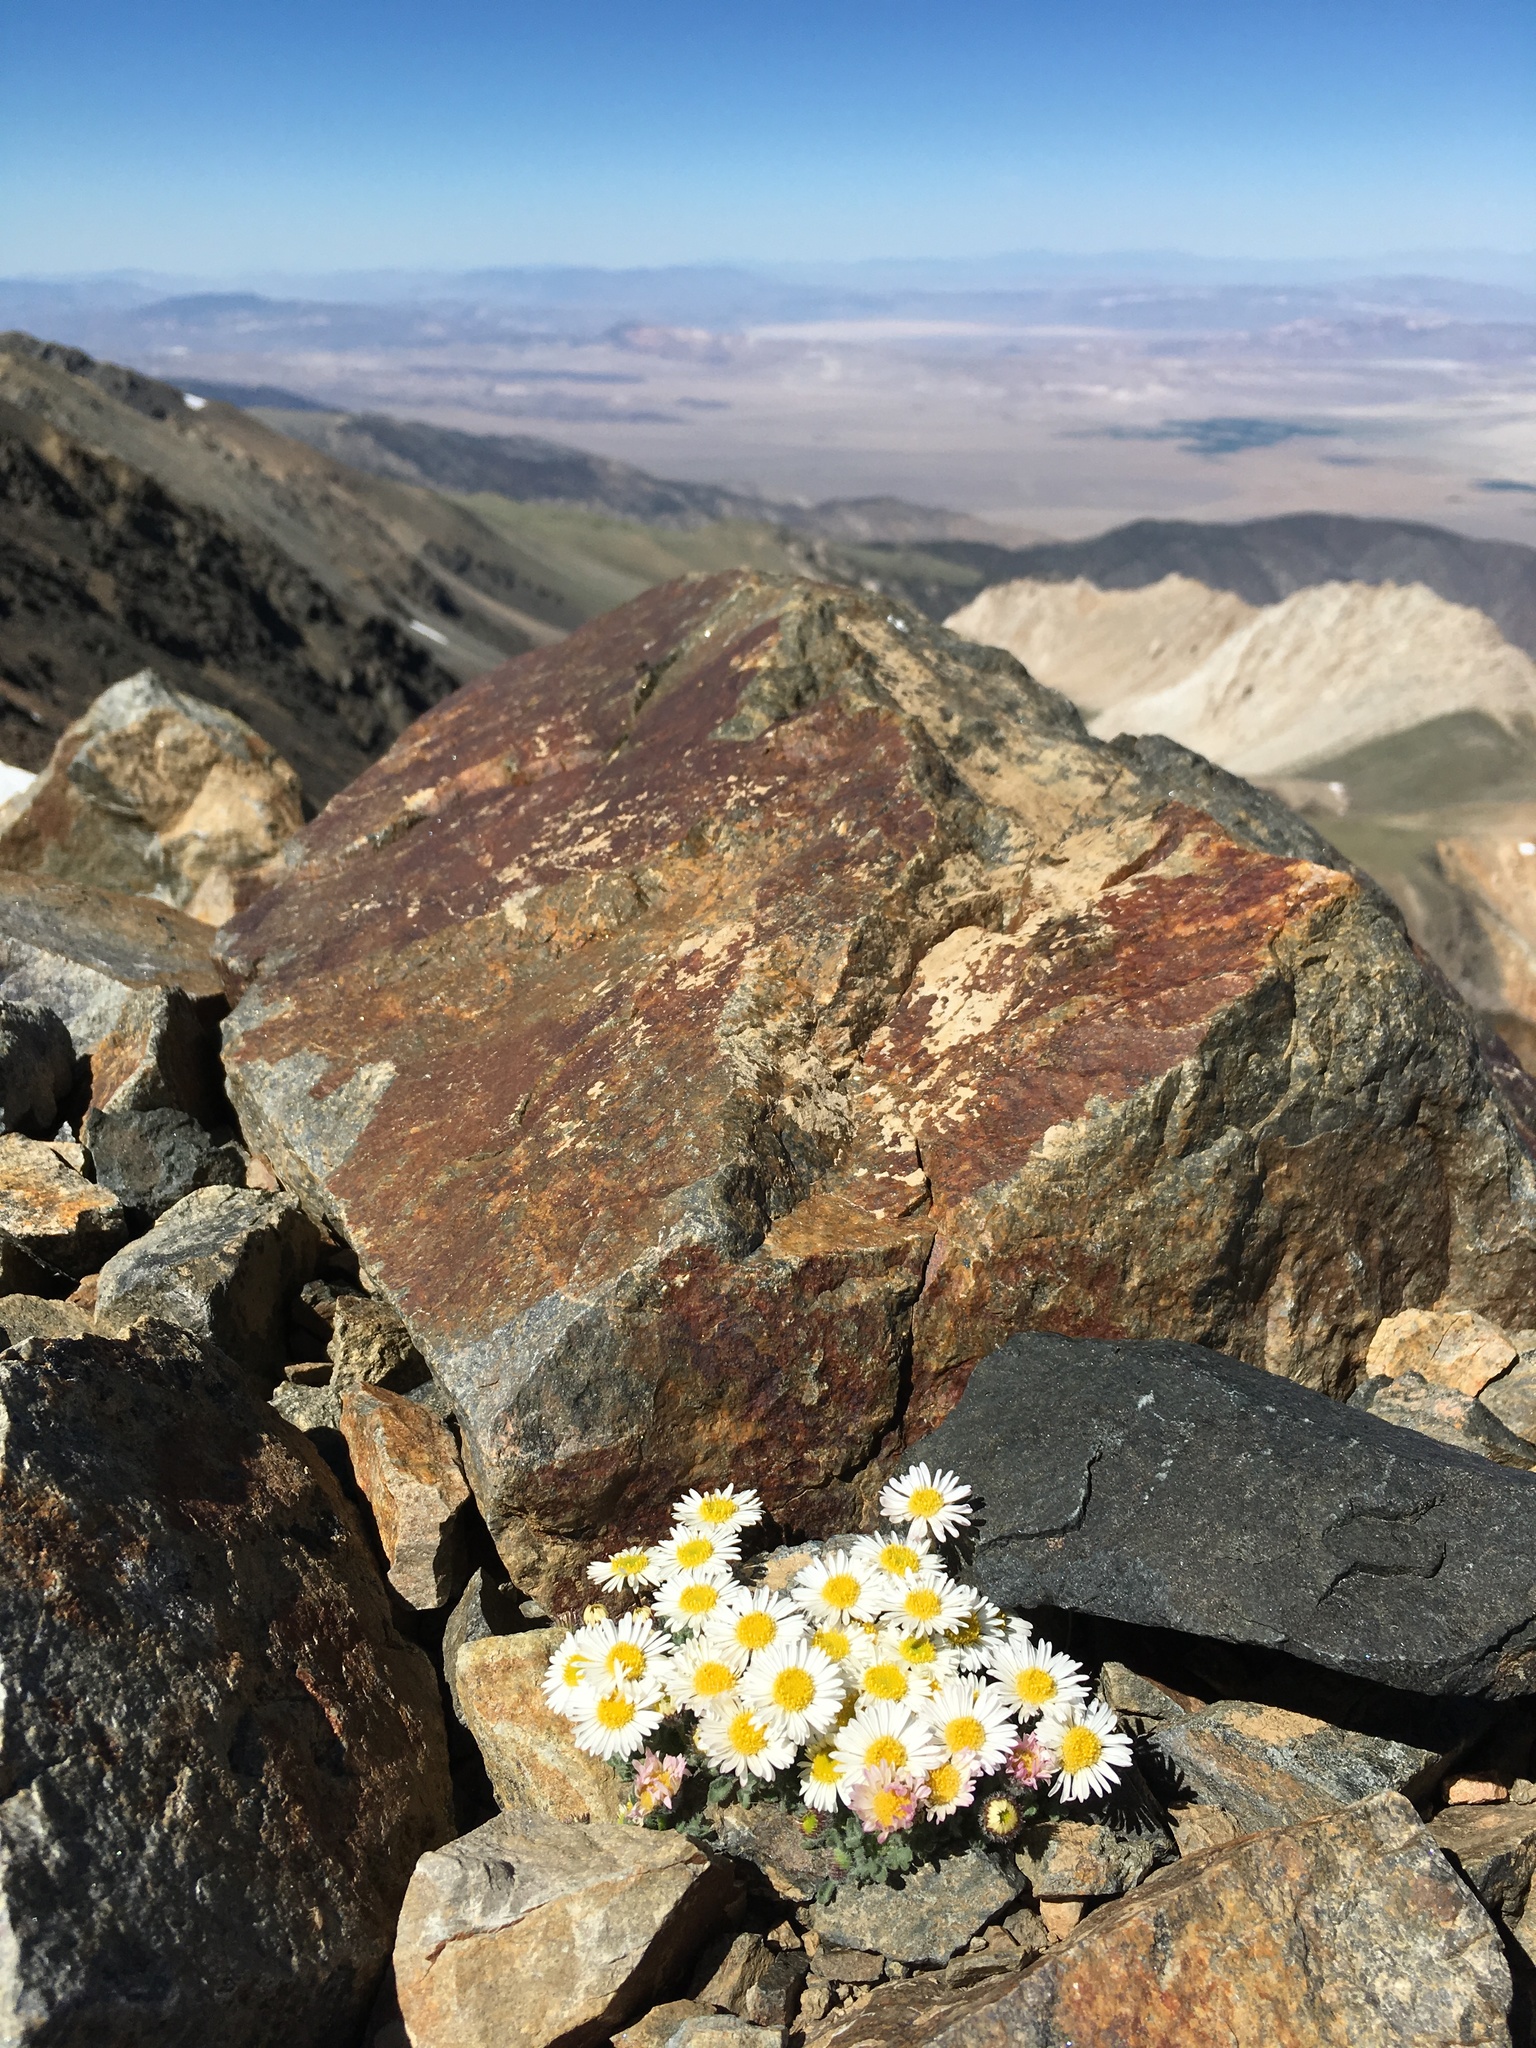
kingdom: Plantae
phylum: Tracheophyta
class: Magnoliopsida
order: Asterales
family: Asteraceae
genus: Erigeron
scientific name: Erigeron vagus
